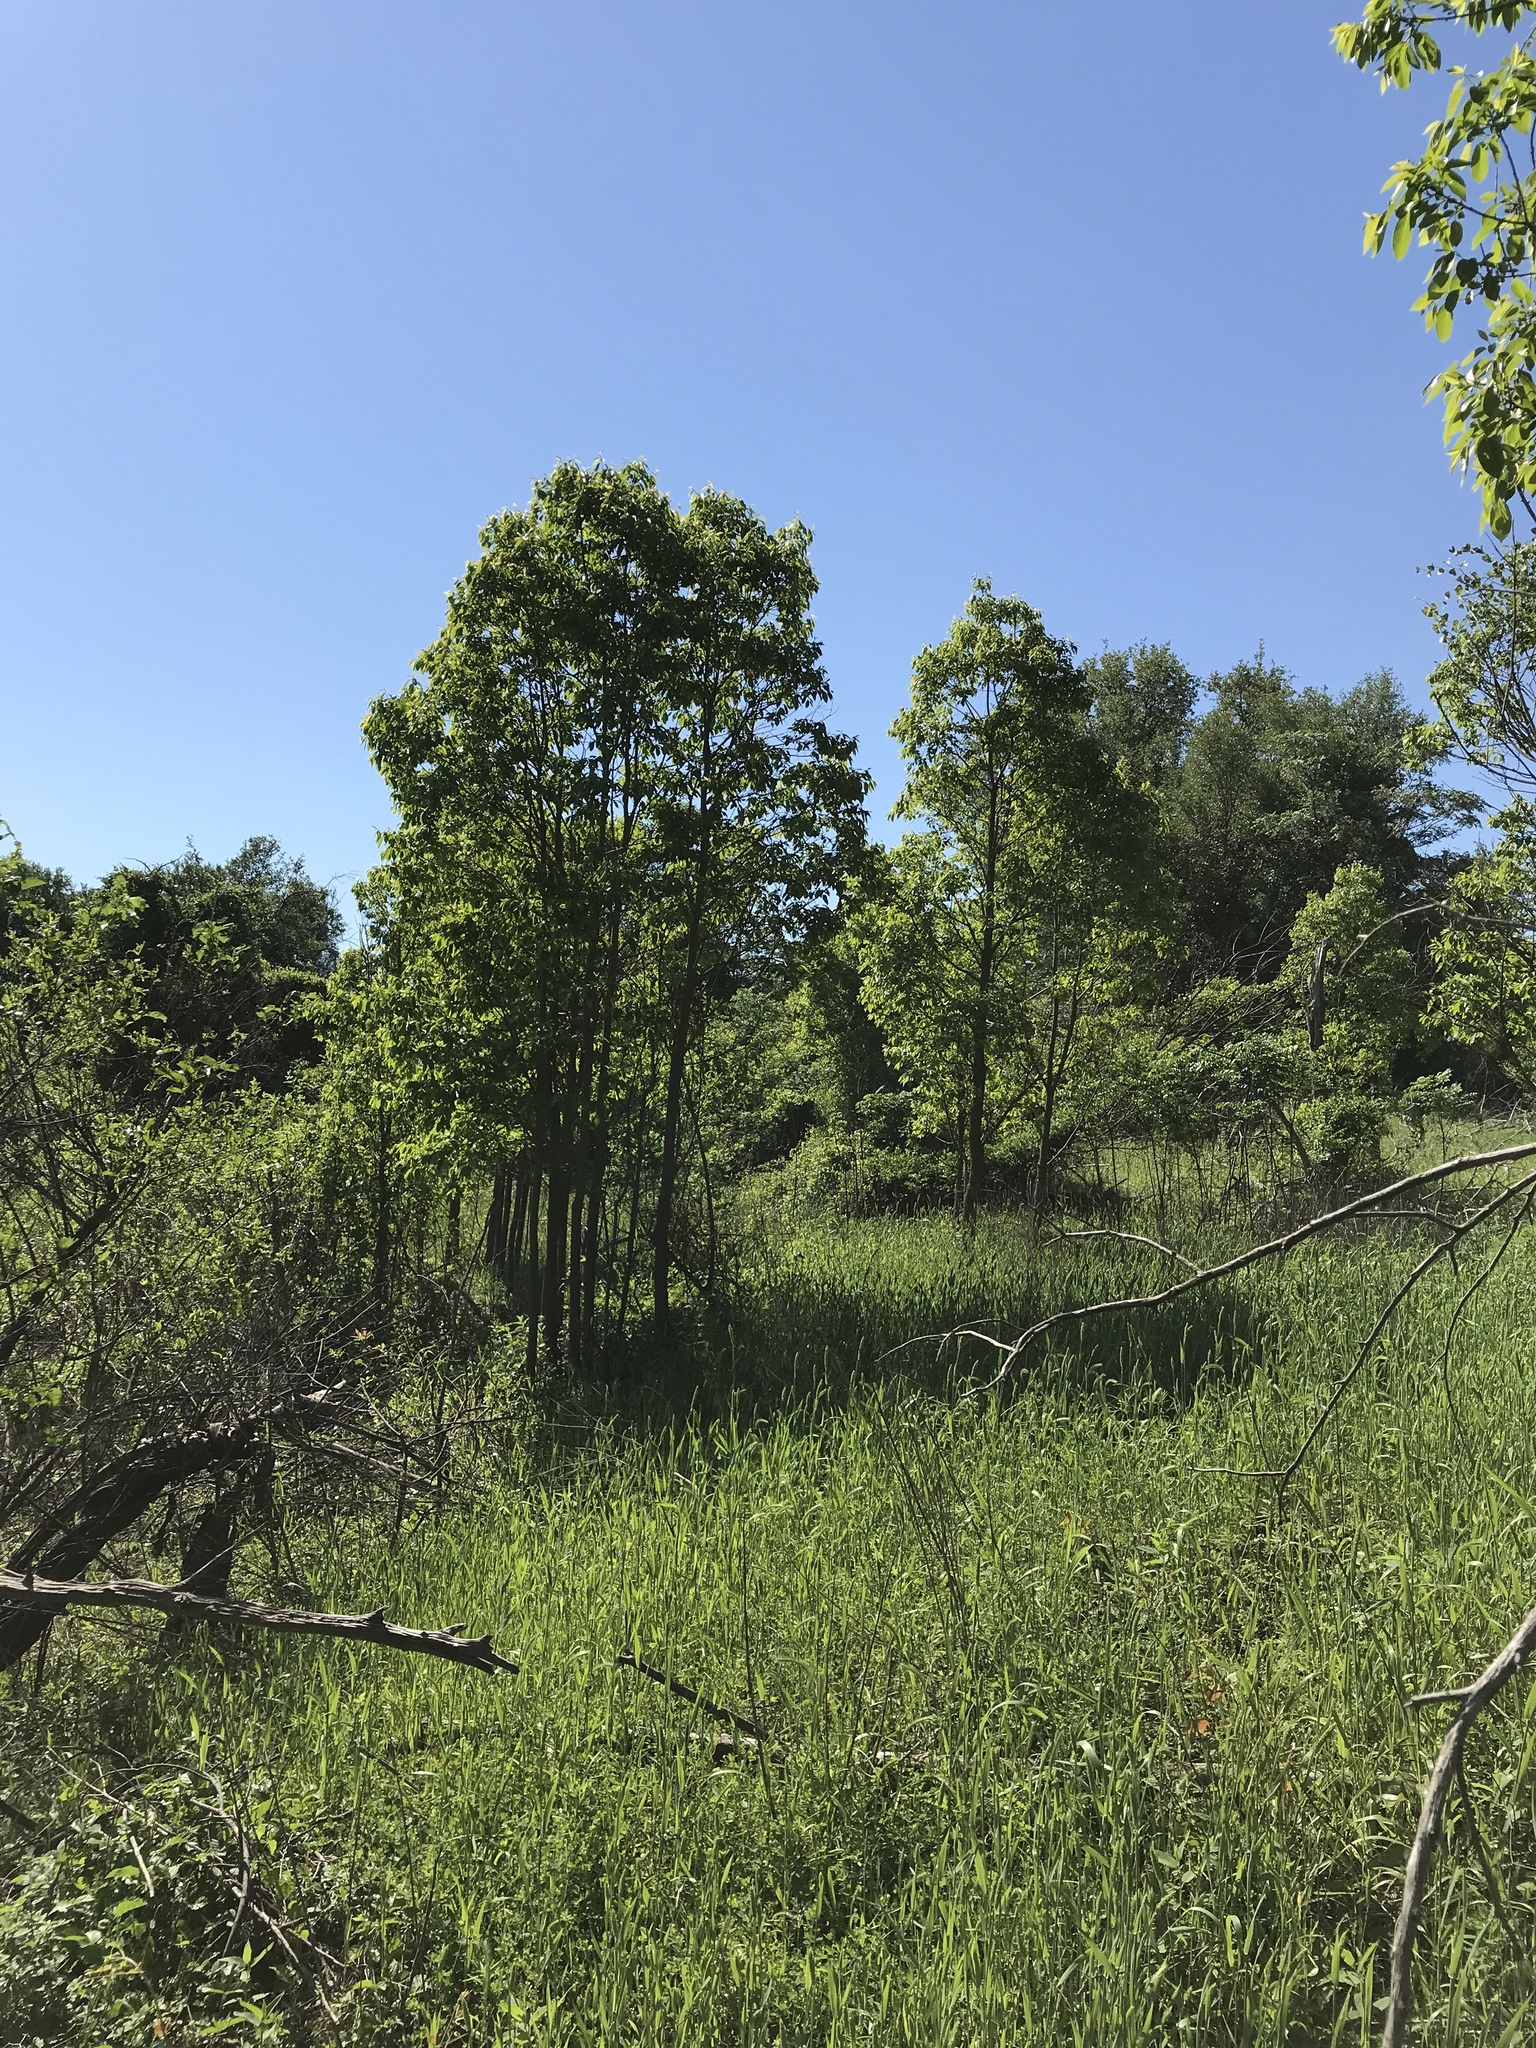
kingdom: Plantae
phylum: Tracheophyta
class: Magnoliopsida
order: Ericales
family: Ebenaceae
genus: Diospyros
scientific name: Diospyros virginiana
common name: Persimmon
